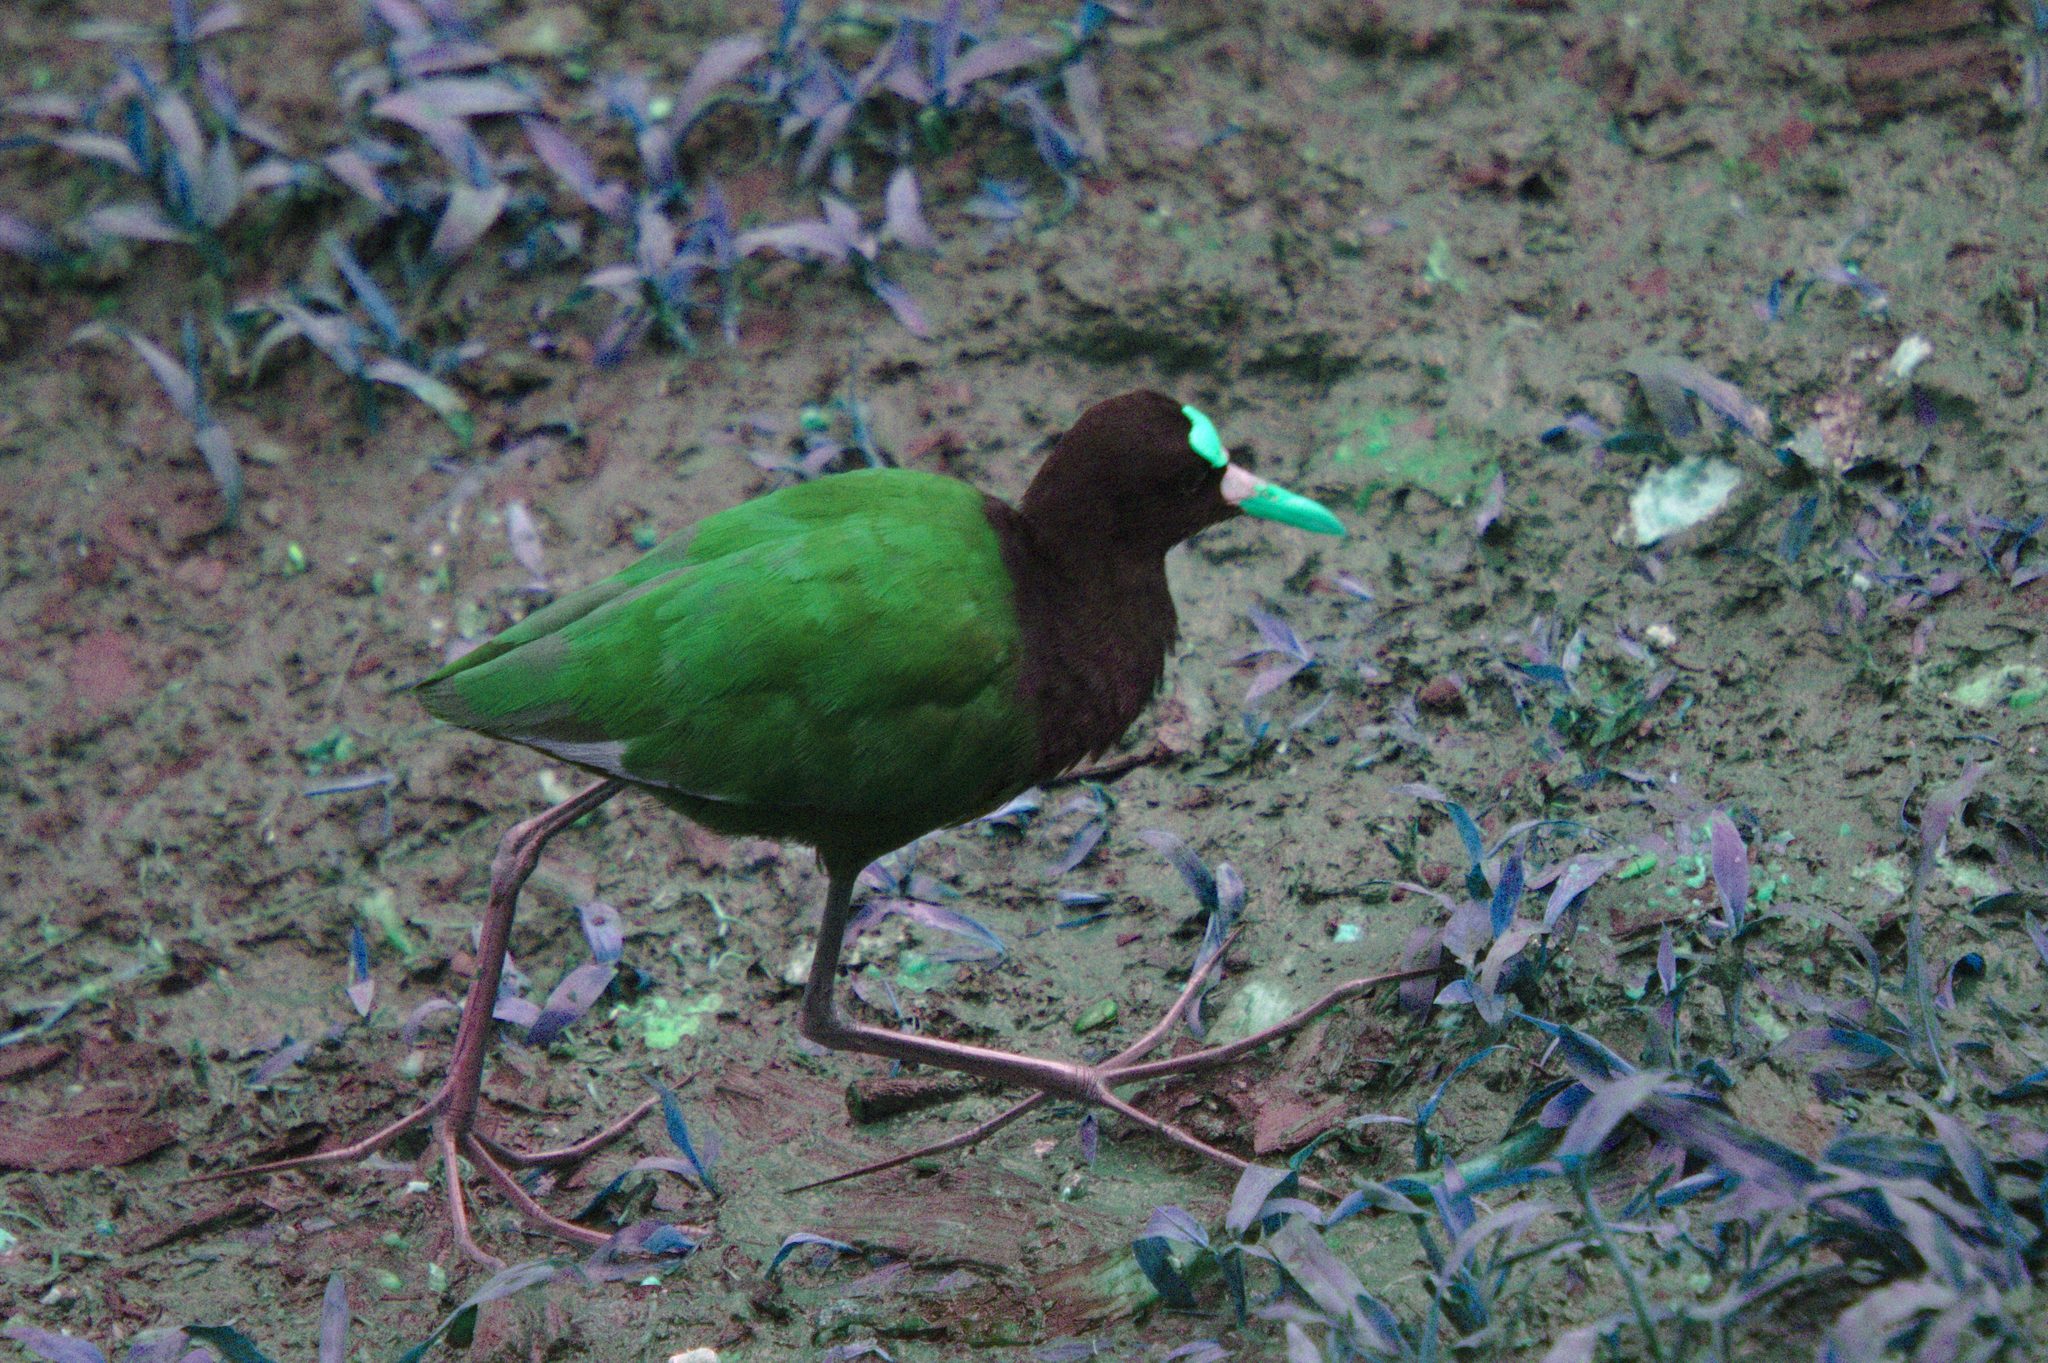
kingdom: Animalia
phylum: Chordata
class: Aves
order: Charadriiformes
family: Jacanidae
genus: Jacana
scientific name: Jacana spinosa
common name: Northern jacana
